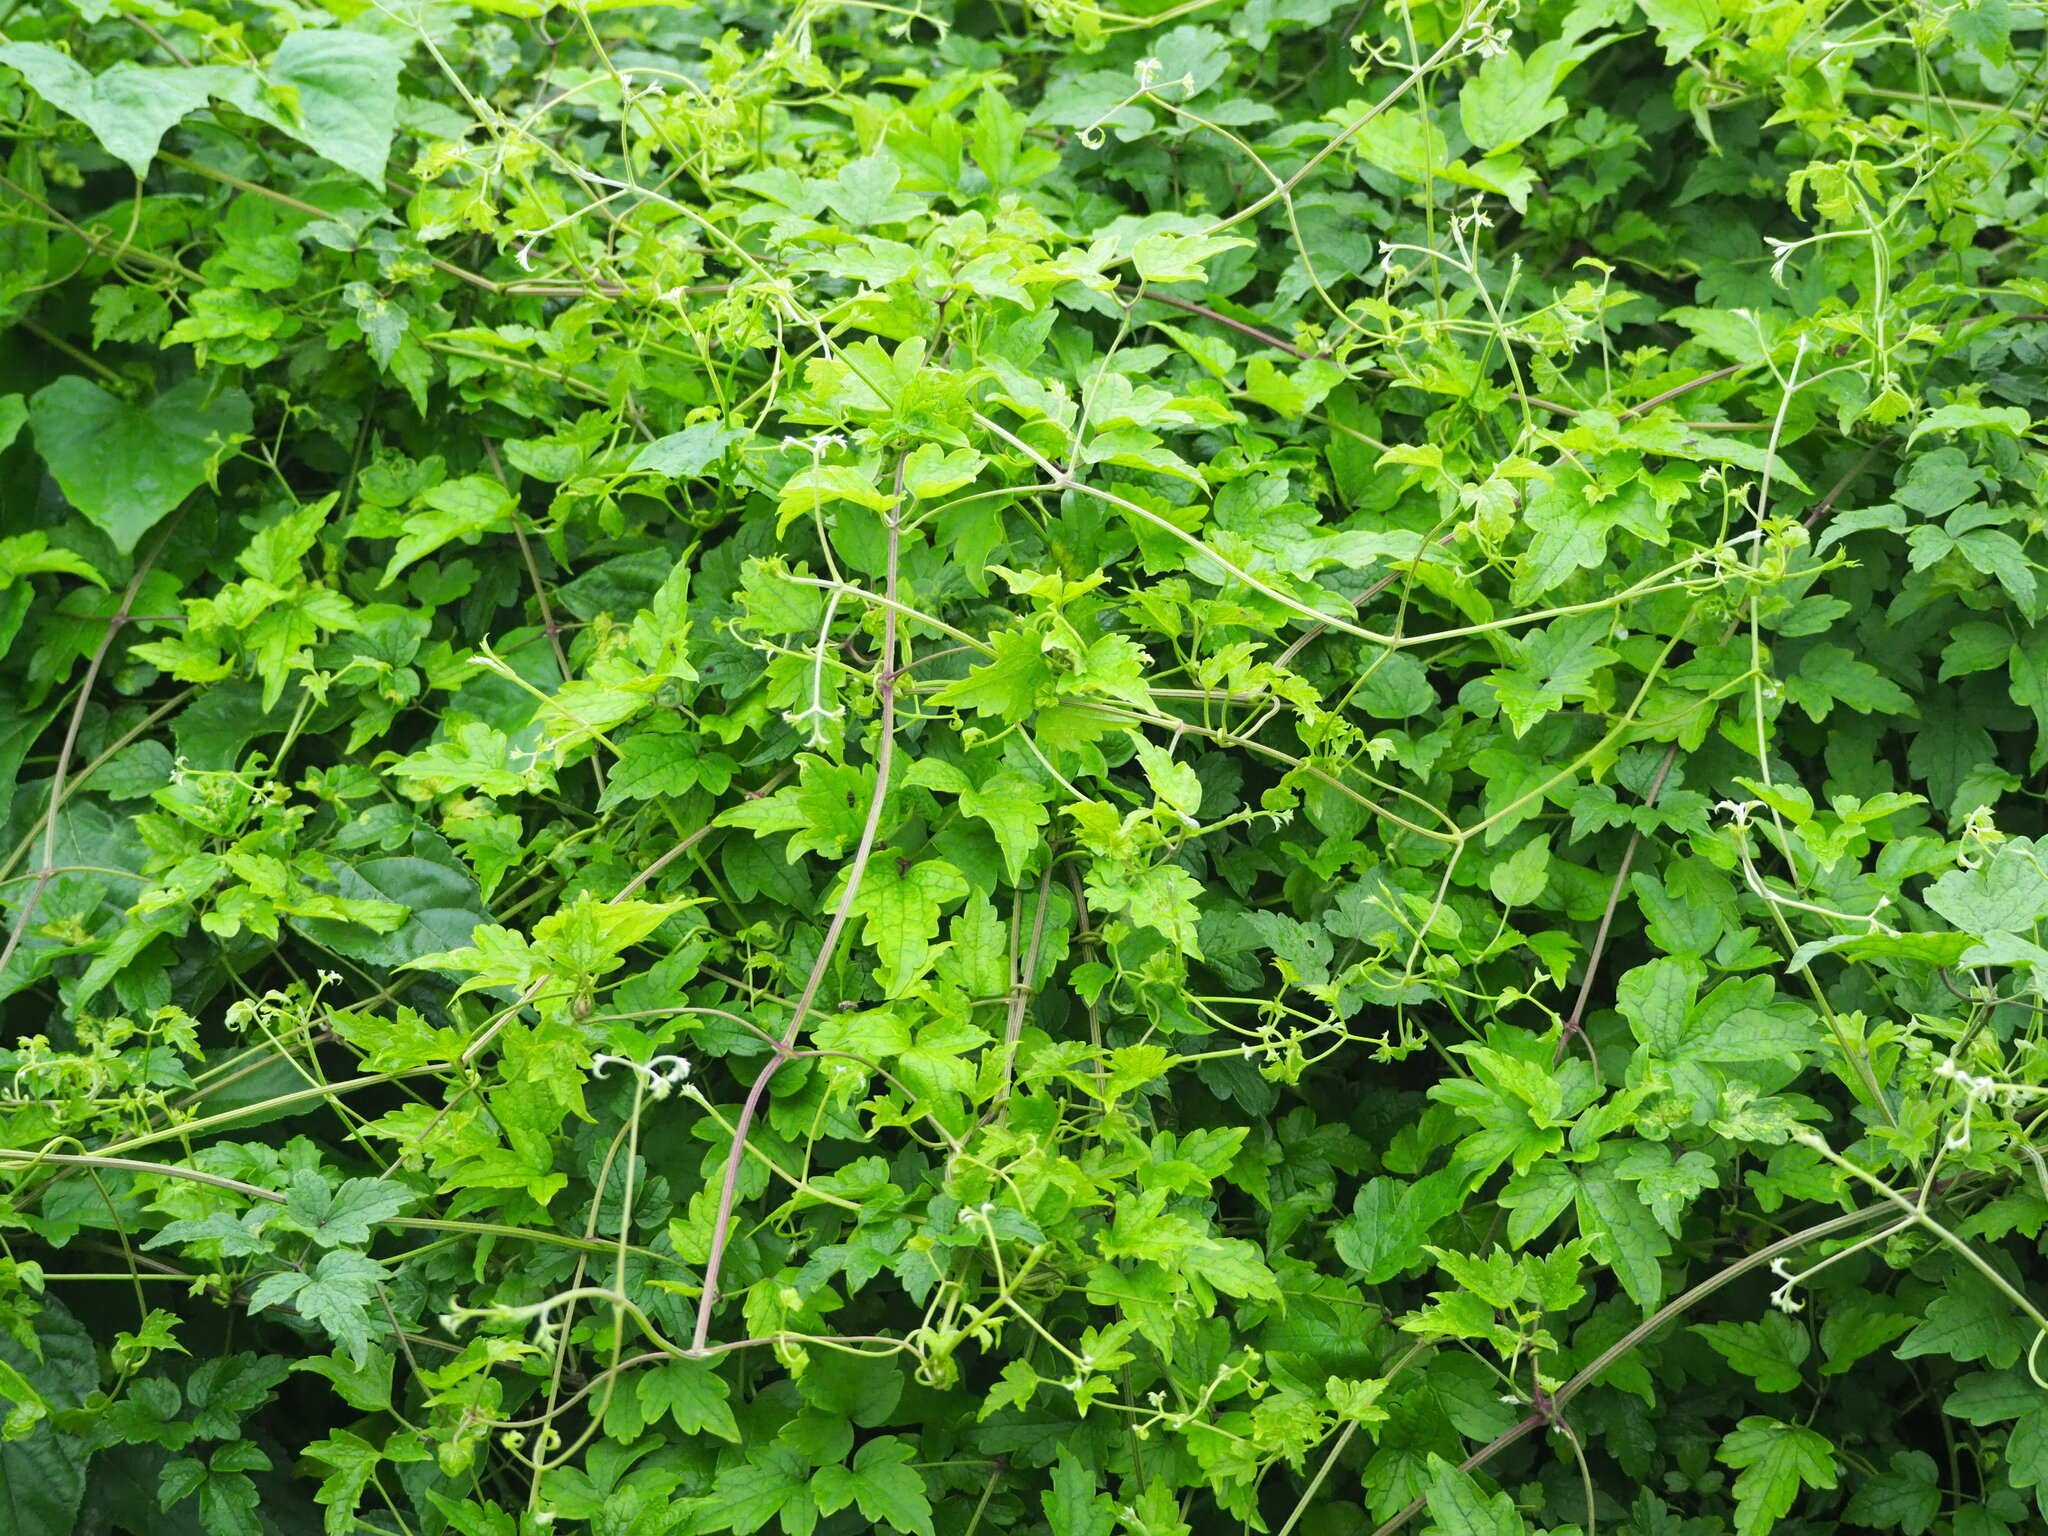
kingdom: Plantae
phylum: Tracheophyta
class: Magnoliopsida
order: Ranunculales
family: Ranunculaceae
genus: Clematis
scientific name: Clematis grata
